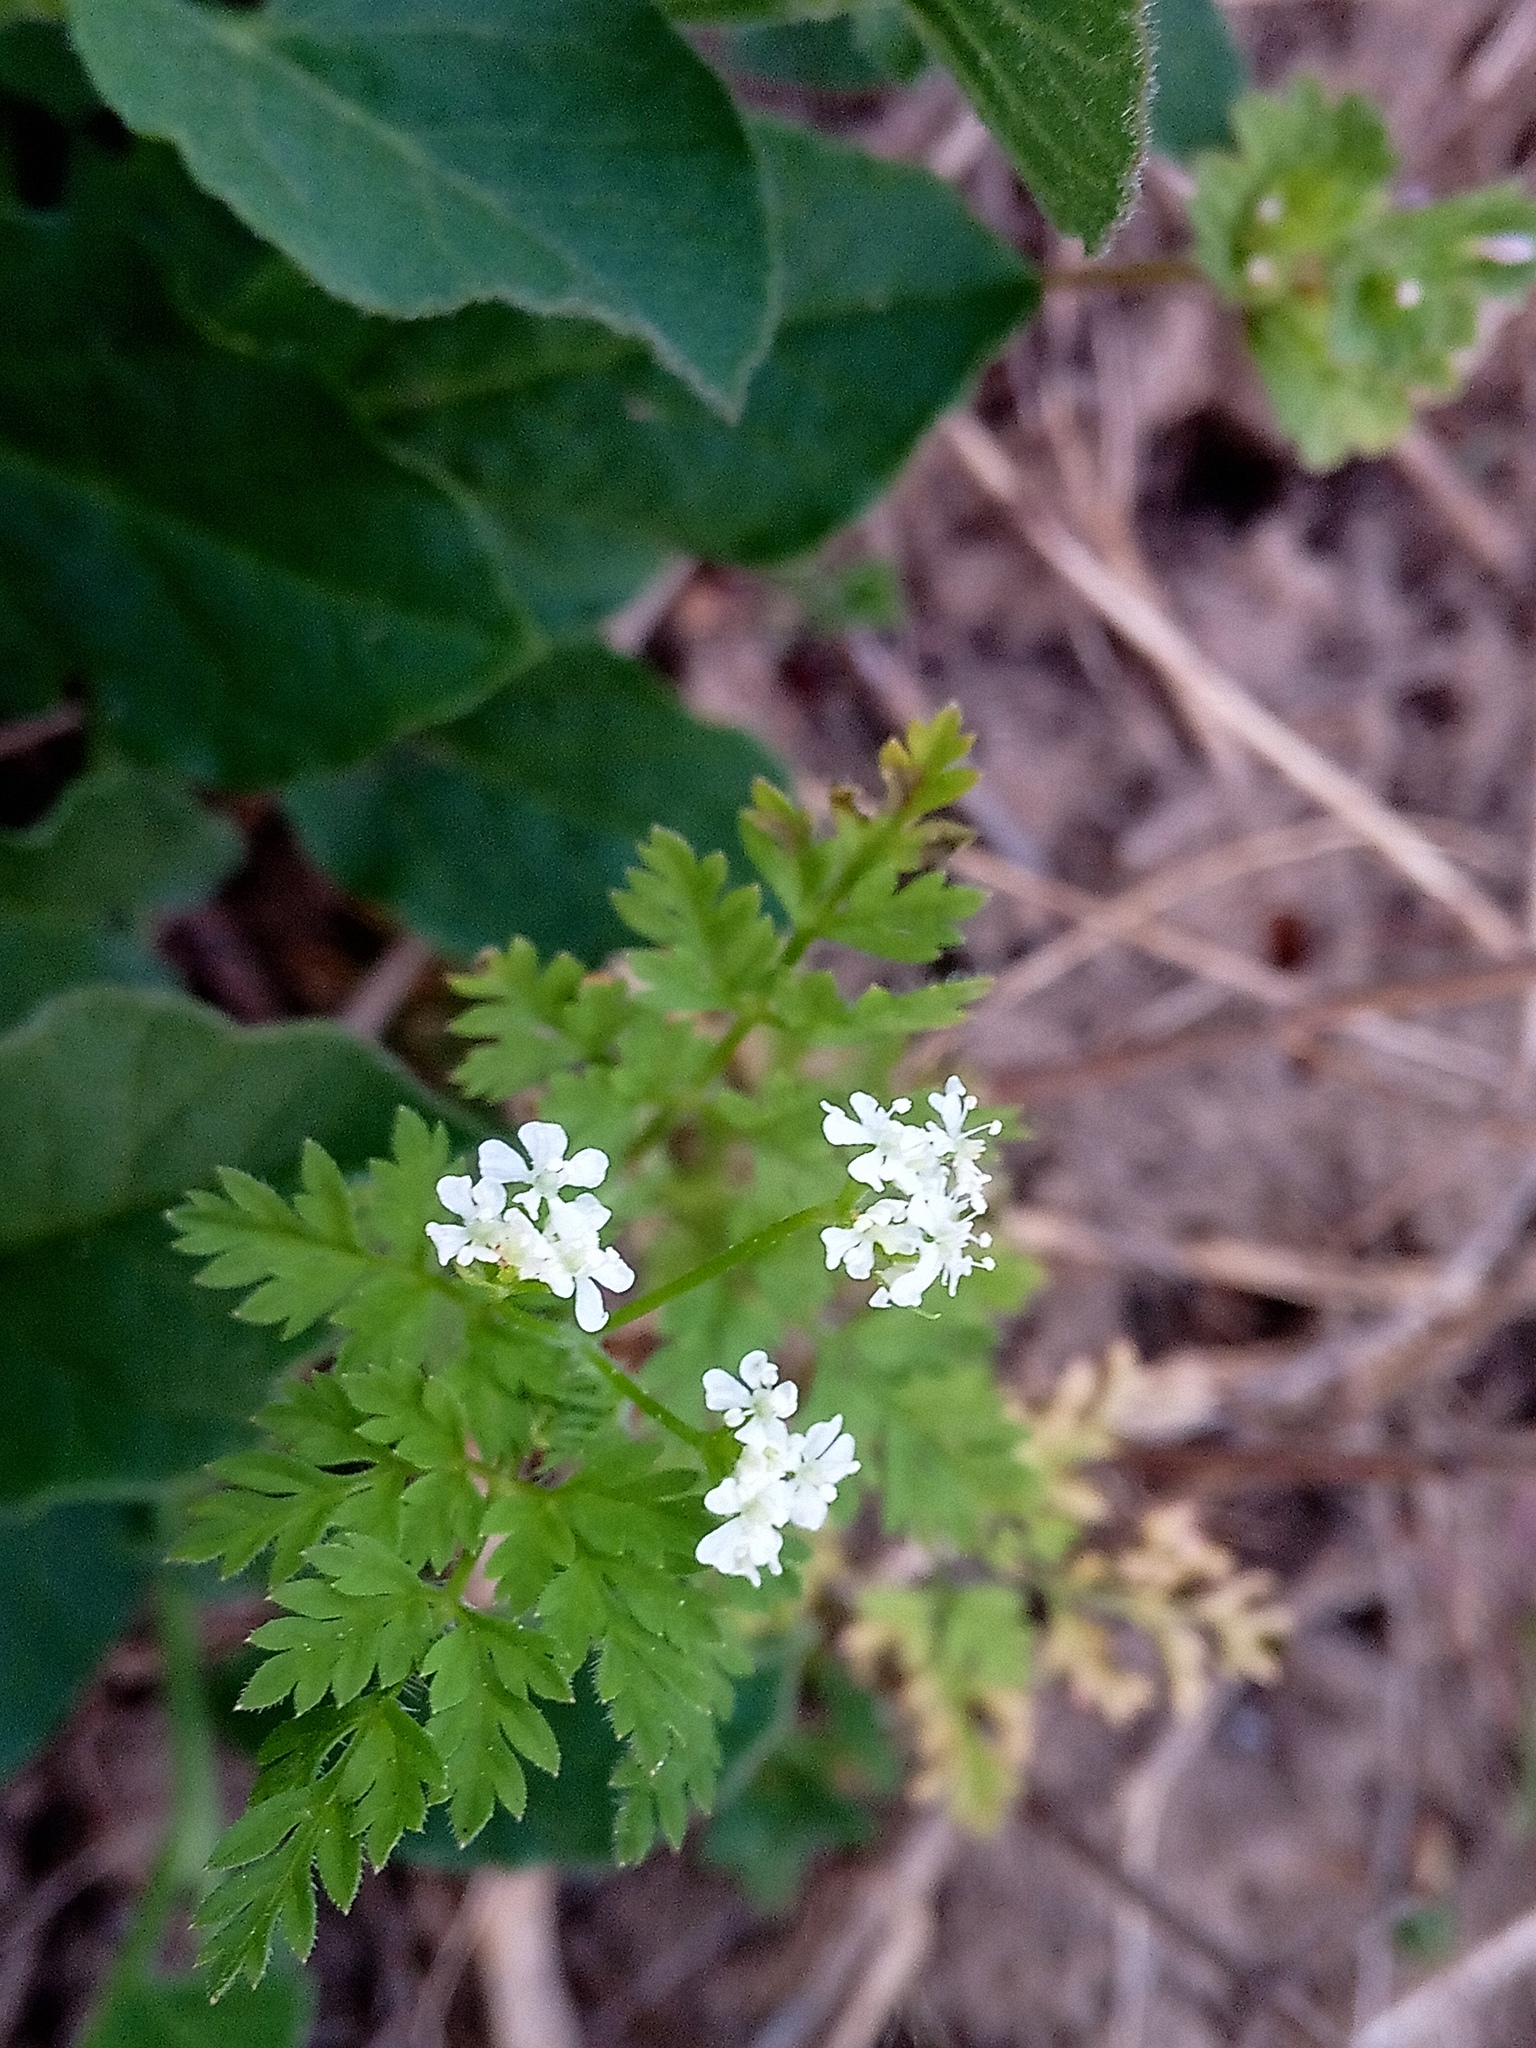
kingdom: Plantae
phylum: Tracheophyta
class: Magnoliopsida
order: Apiales
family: Apiaceae
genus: Anthriscus
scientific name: Anthriscus cerefolium
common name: Garden chervil
